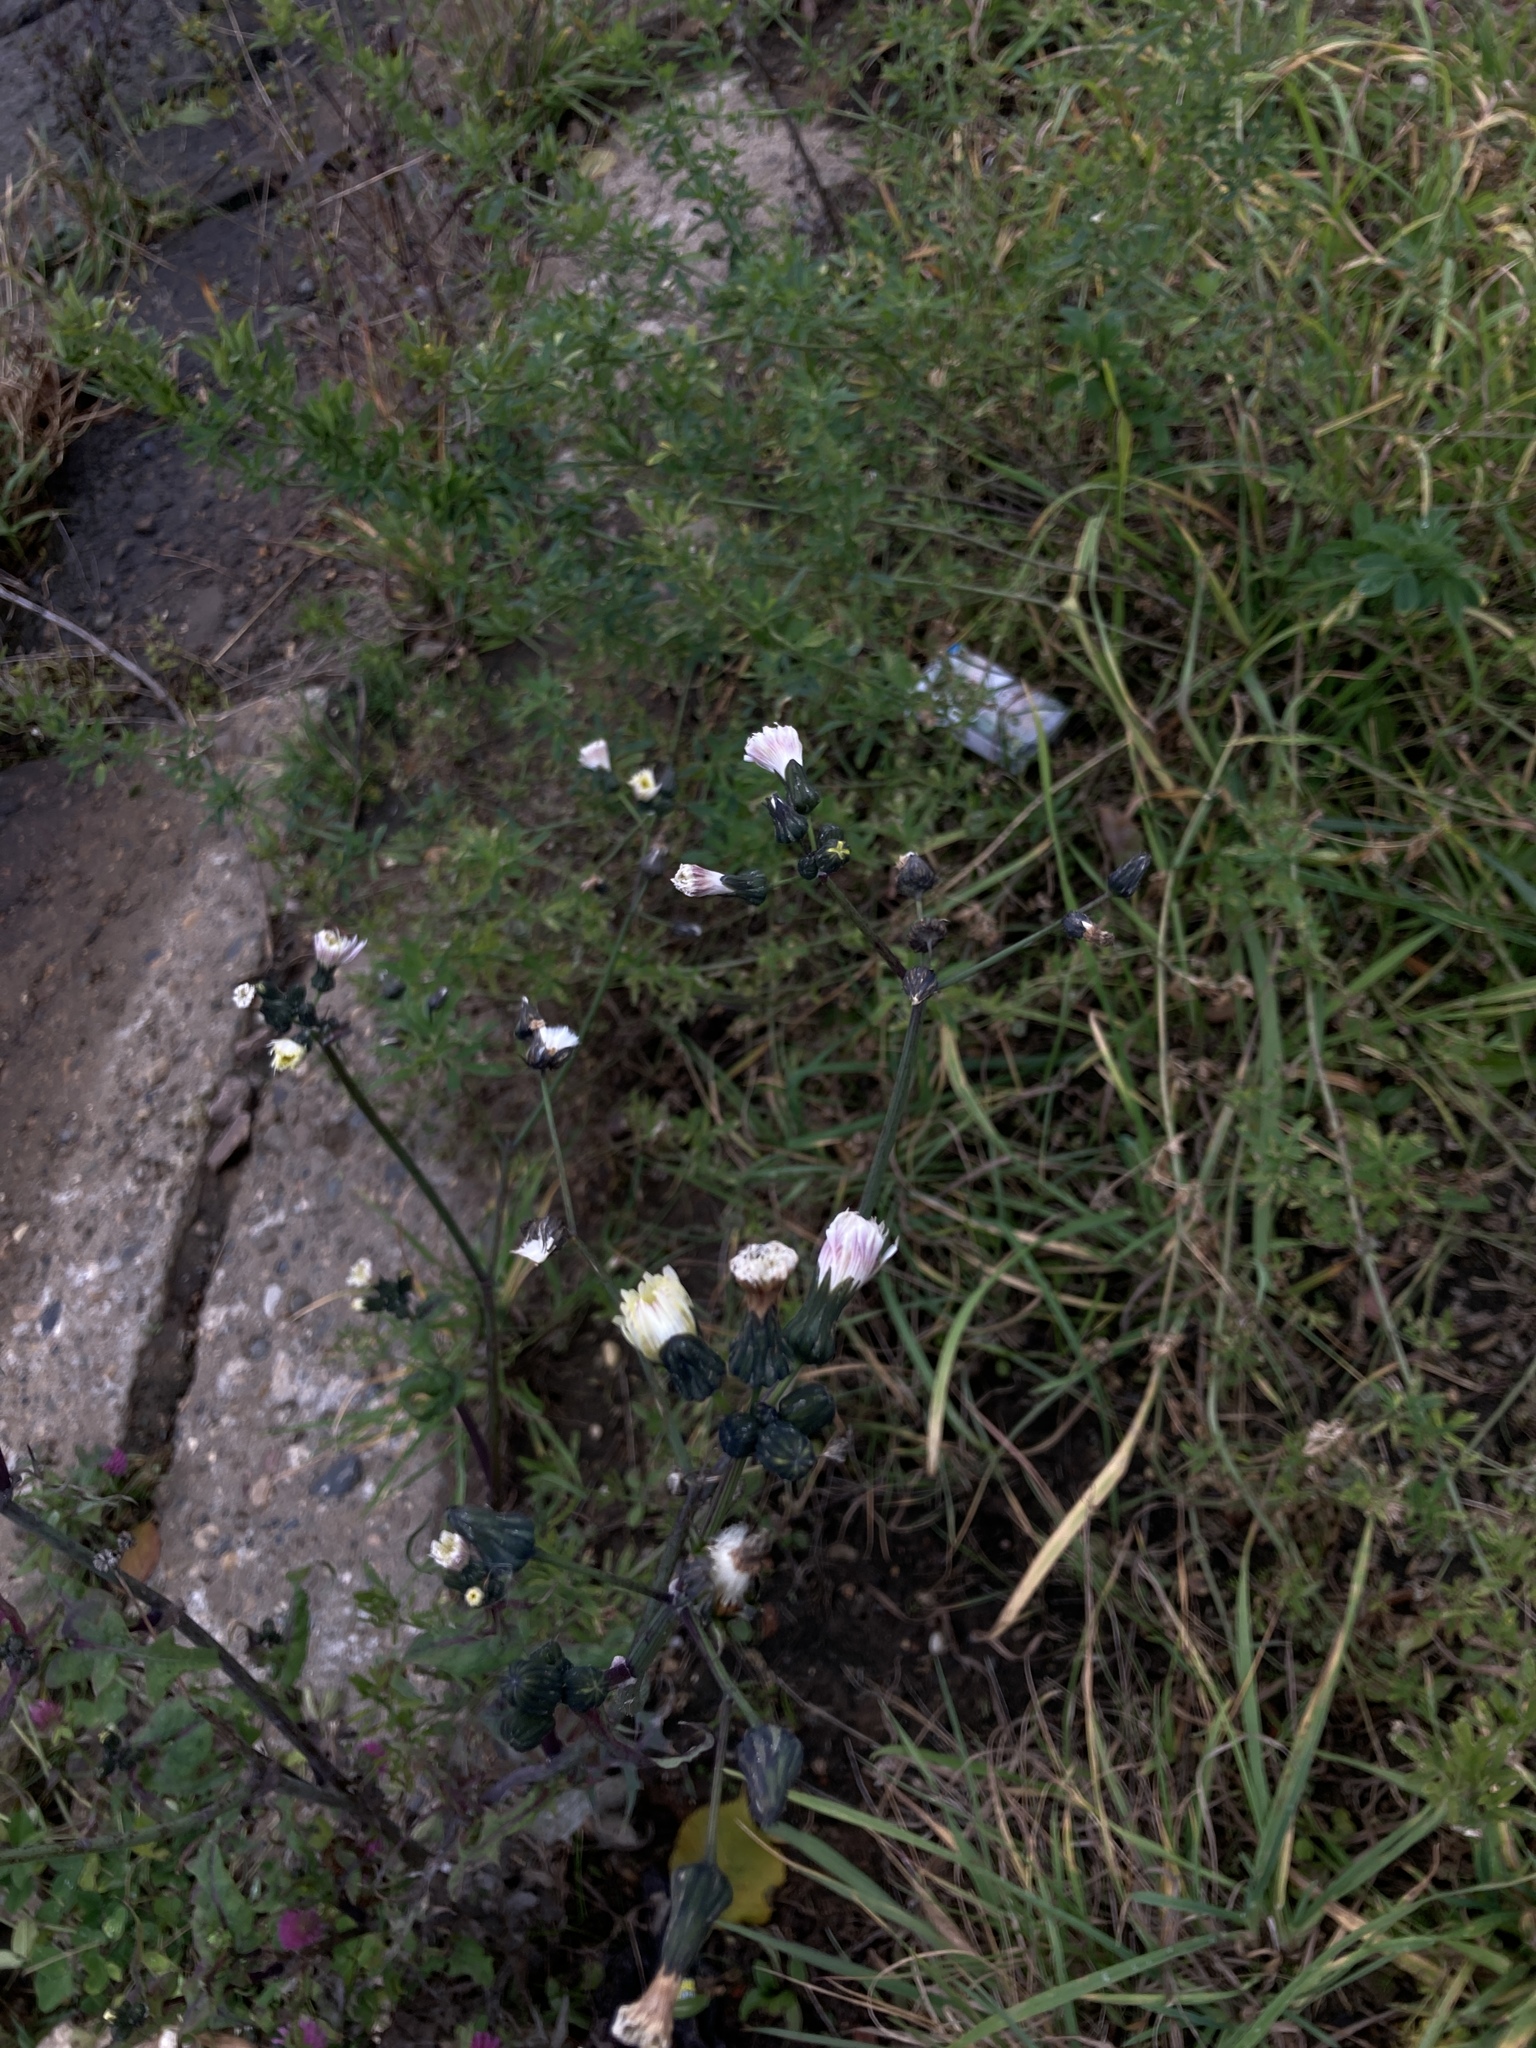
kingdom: Plantae
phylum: Tracheophyta
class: Magnoliopsida
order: Asterales
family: Asteraceae
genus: Sonchus
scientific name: Sonchus oleraceus
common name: Common sowthistle
